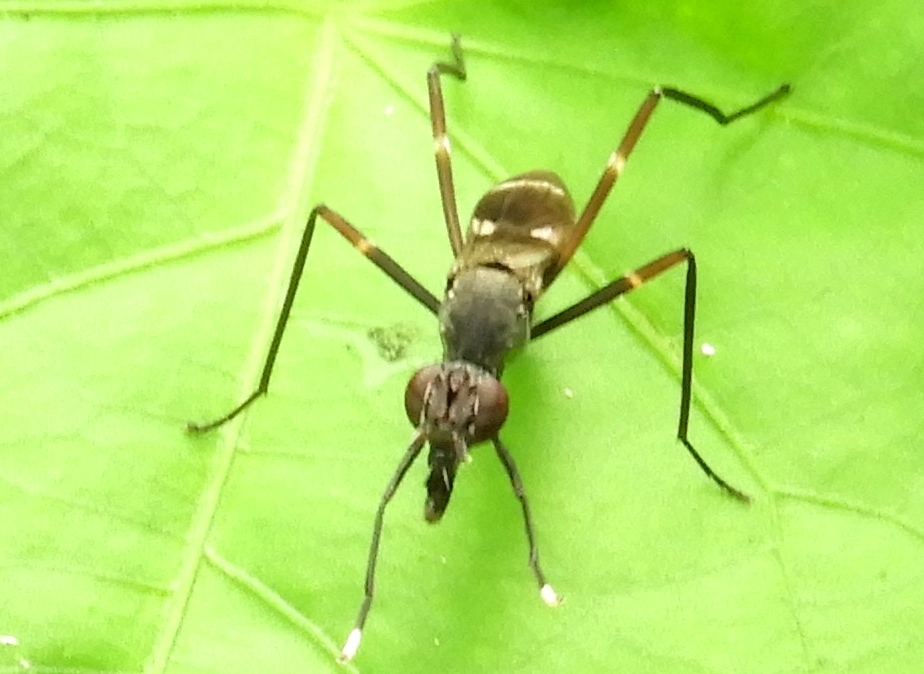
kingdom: Animalia
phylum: Arthropoda
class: Insecta
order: Diptera
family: Micropezidae
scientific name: Micropezidae
